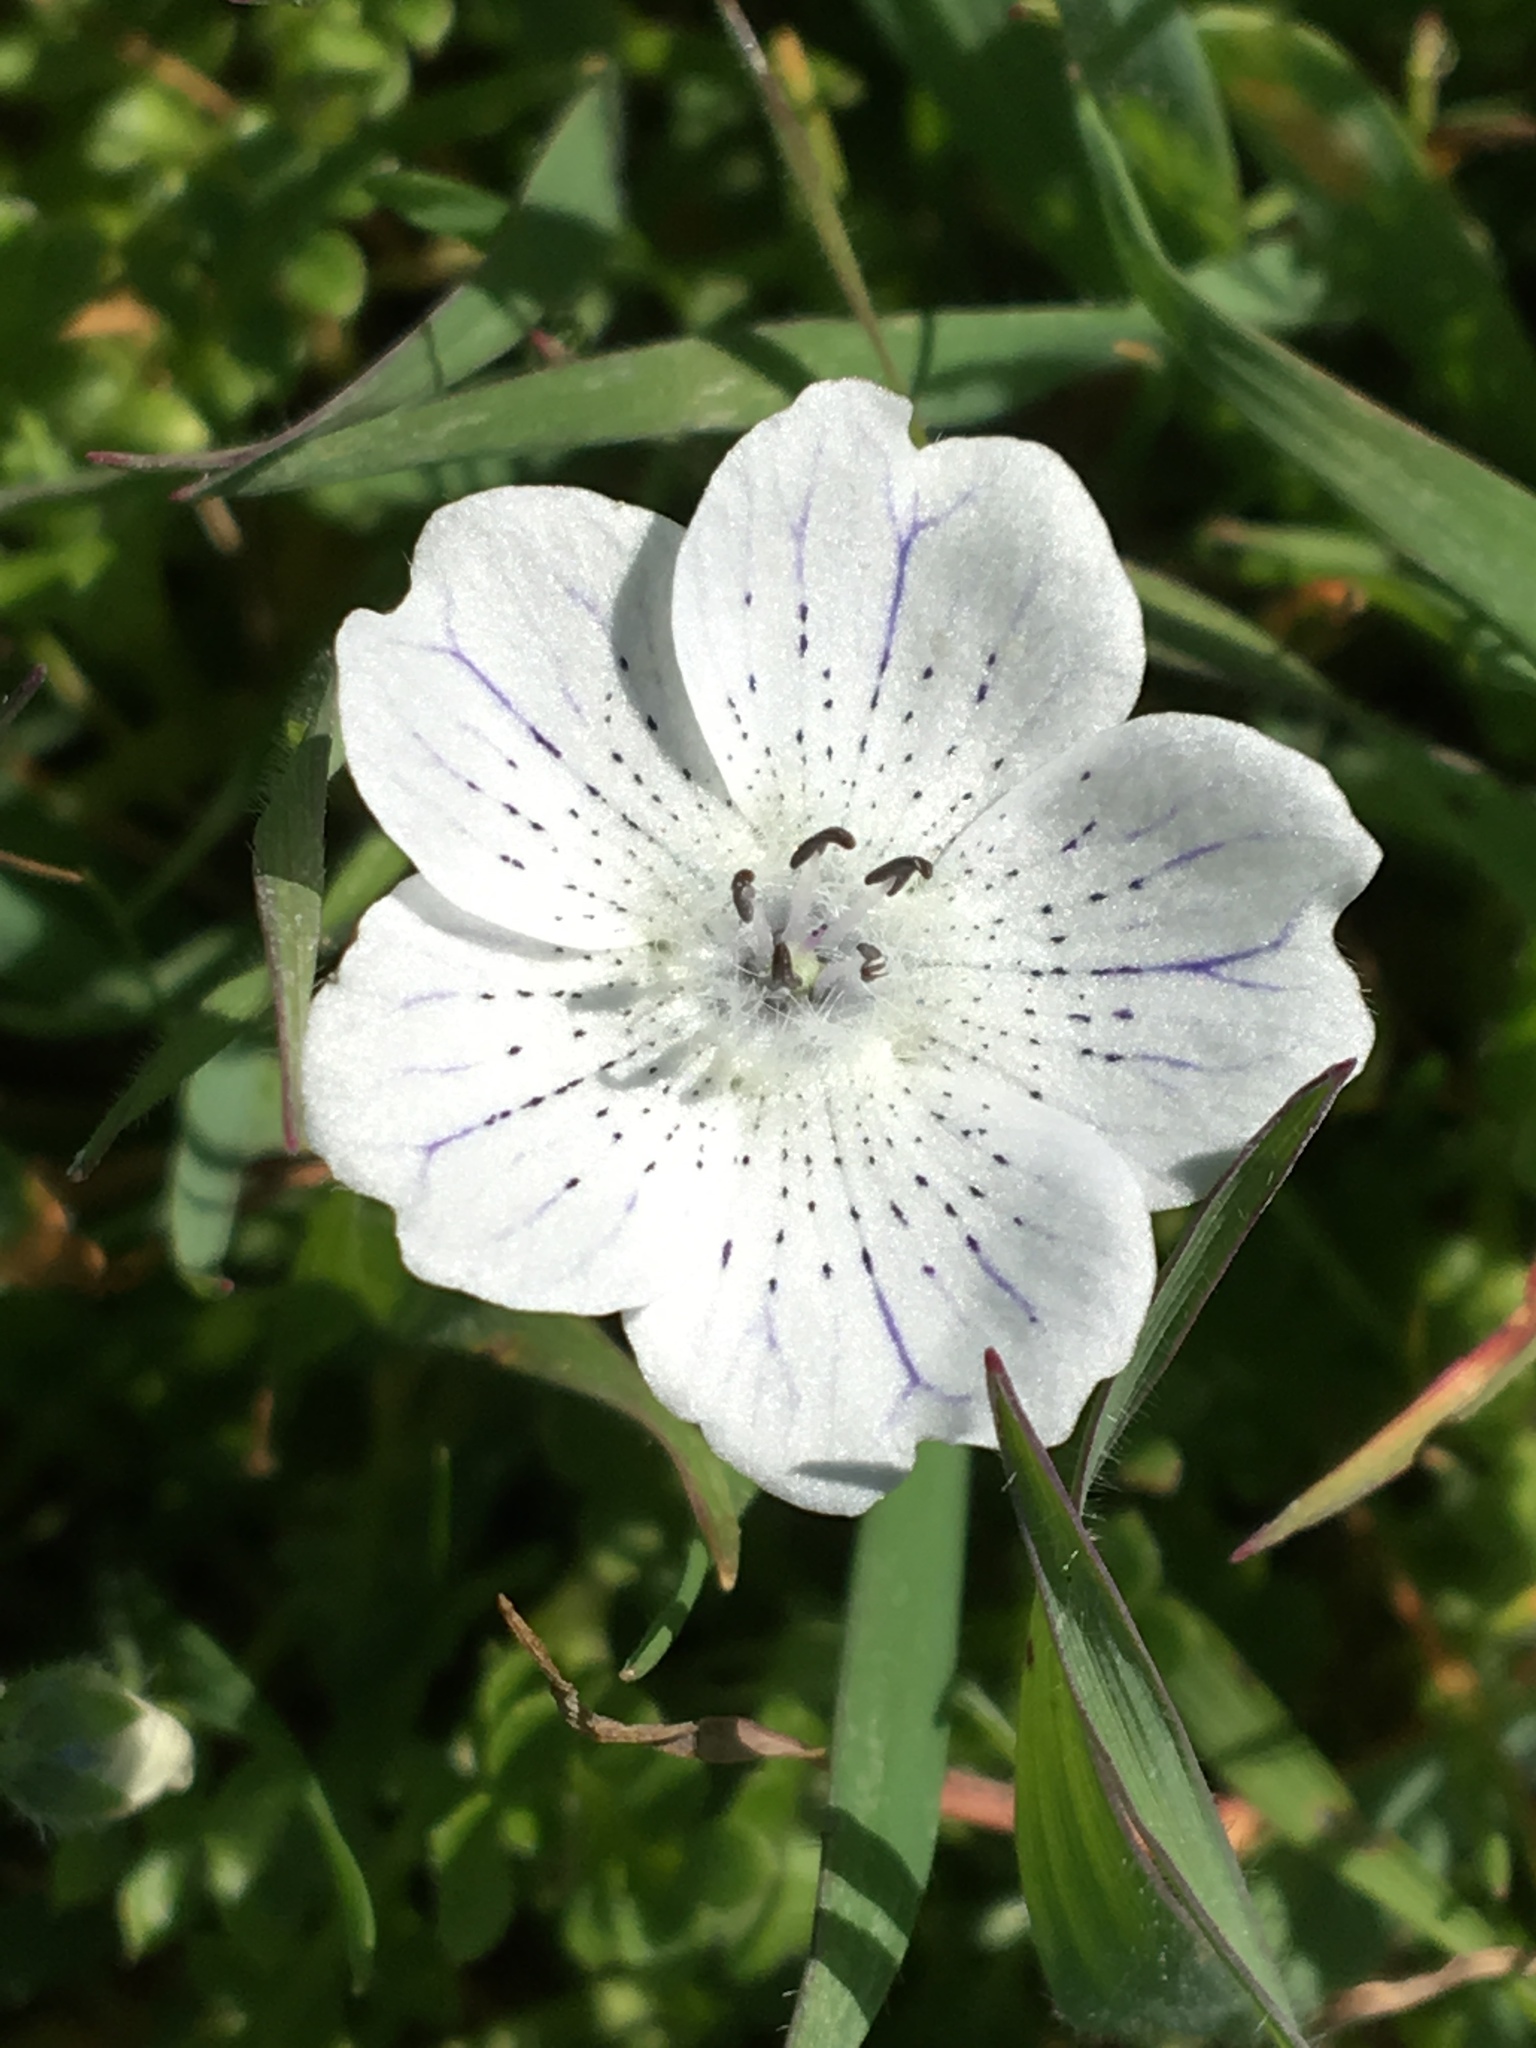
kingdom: Plantae
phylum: Tracheophyta
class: Magnoliopsida
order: Boraginales
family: Hydrophyllaceae
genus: Nemophila
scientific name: Nemophila menziesii
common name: Baby's-blue-eyes
